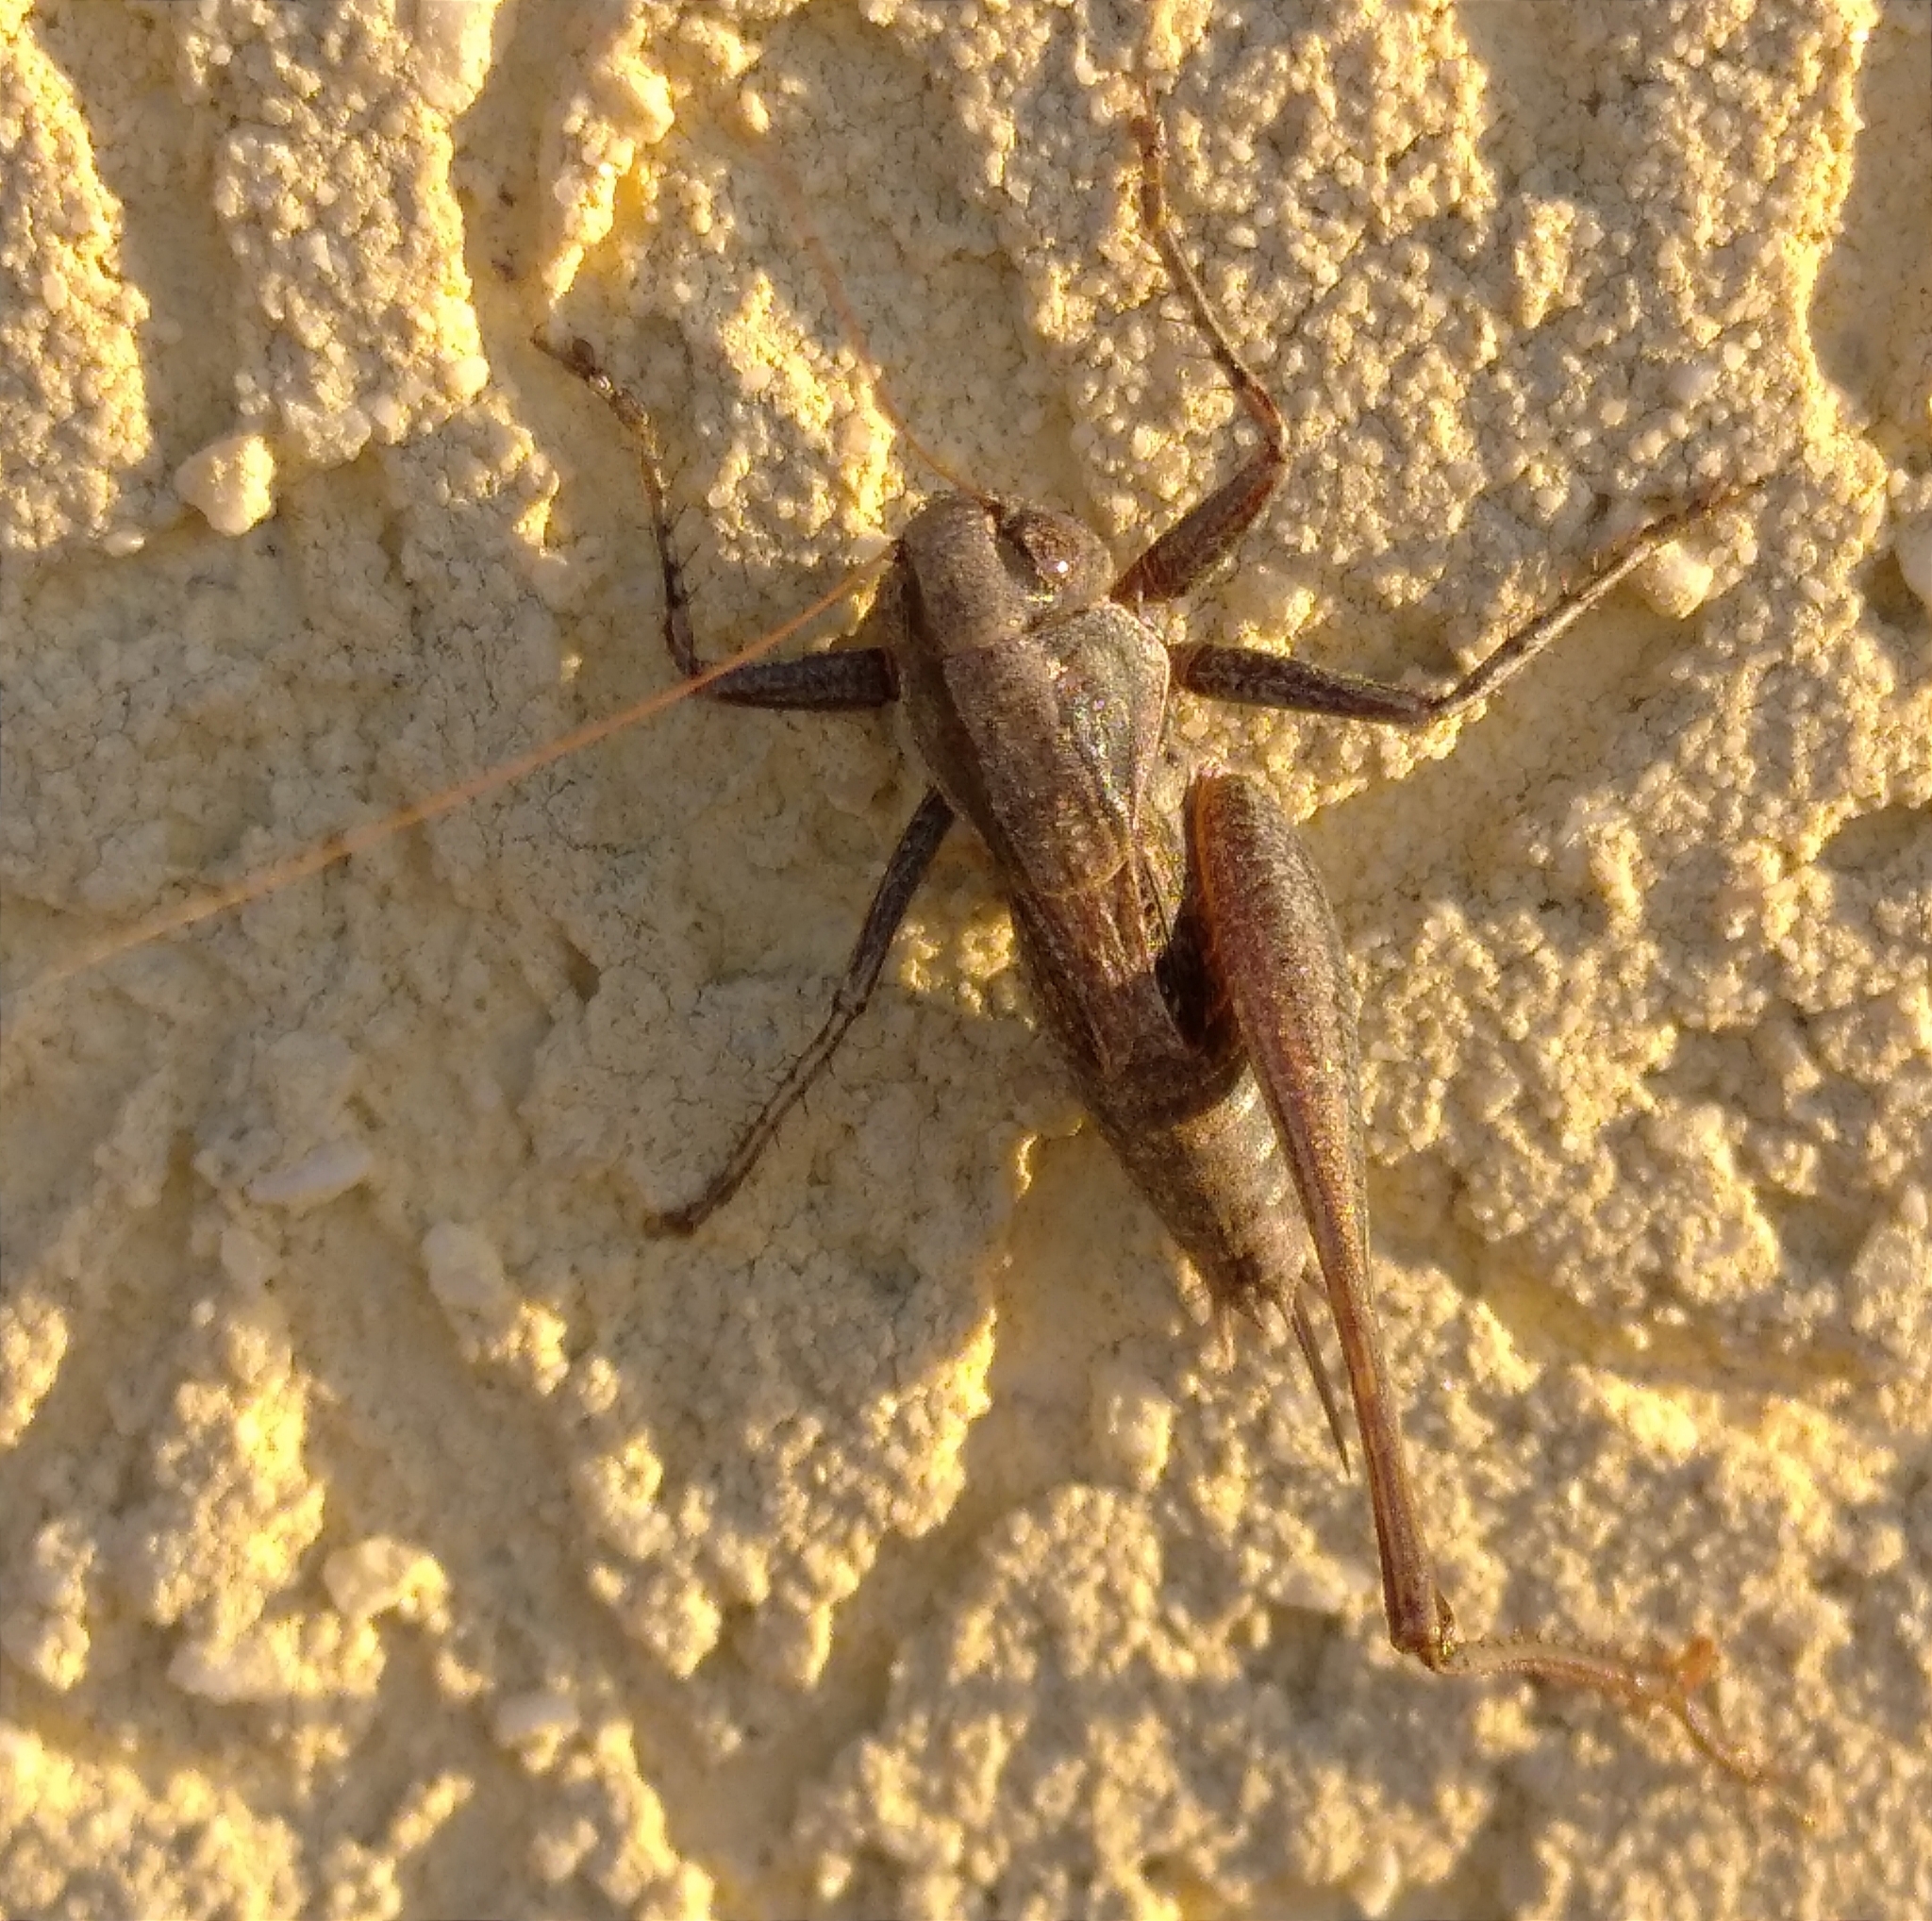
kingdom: Animalia
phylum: Arthropoda
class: Insecta
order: Orthoptera
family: Tettigoniidae
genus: Incertana
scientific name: Incertana incerta
